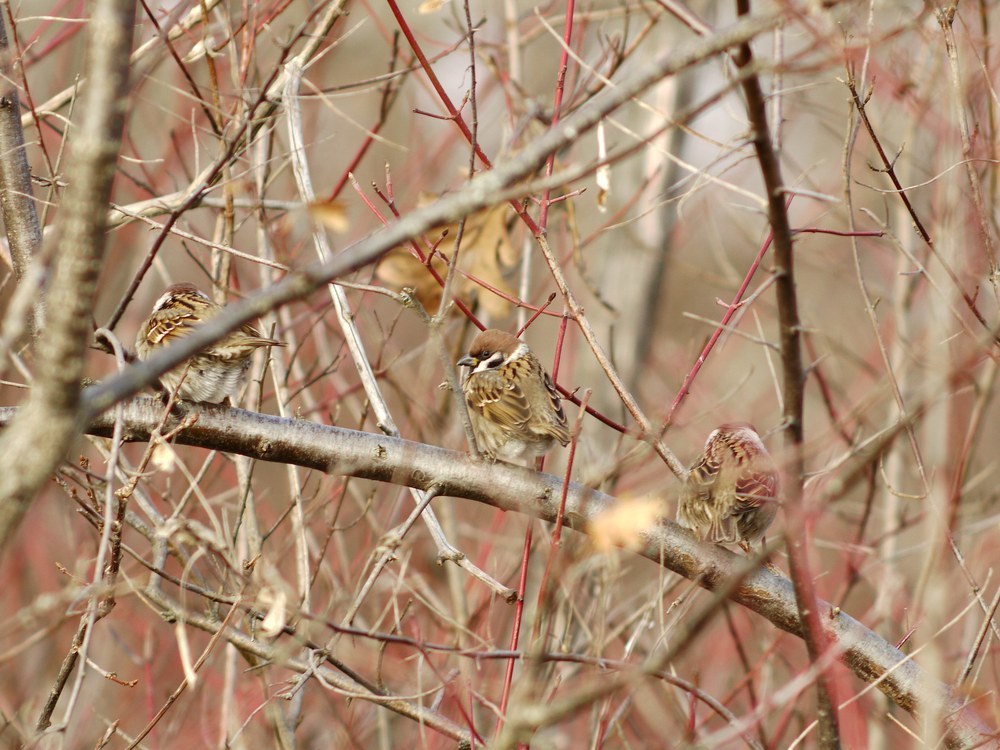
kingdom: Animalia
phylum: Chordata
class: Aves
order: Passeriformes
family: Passeridae
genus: Passer
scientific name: Passer montanus
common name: Eurasian tree sparrow
